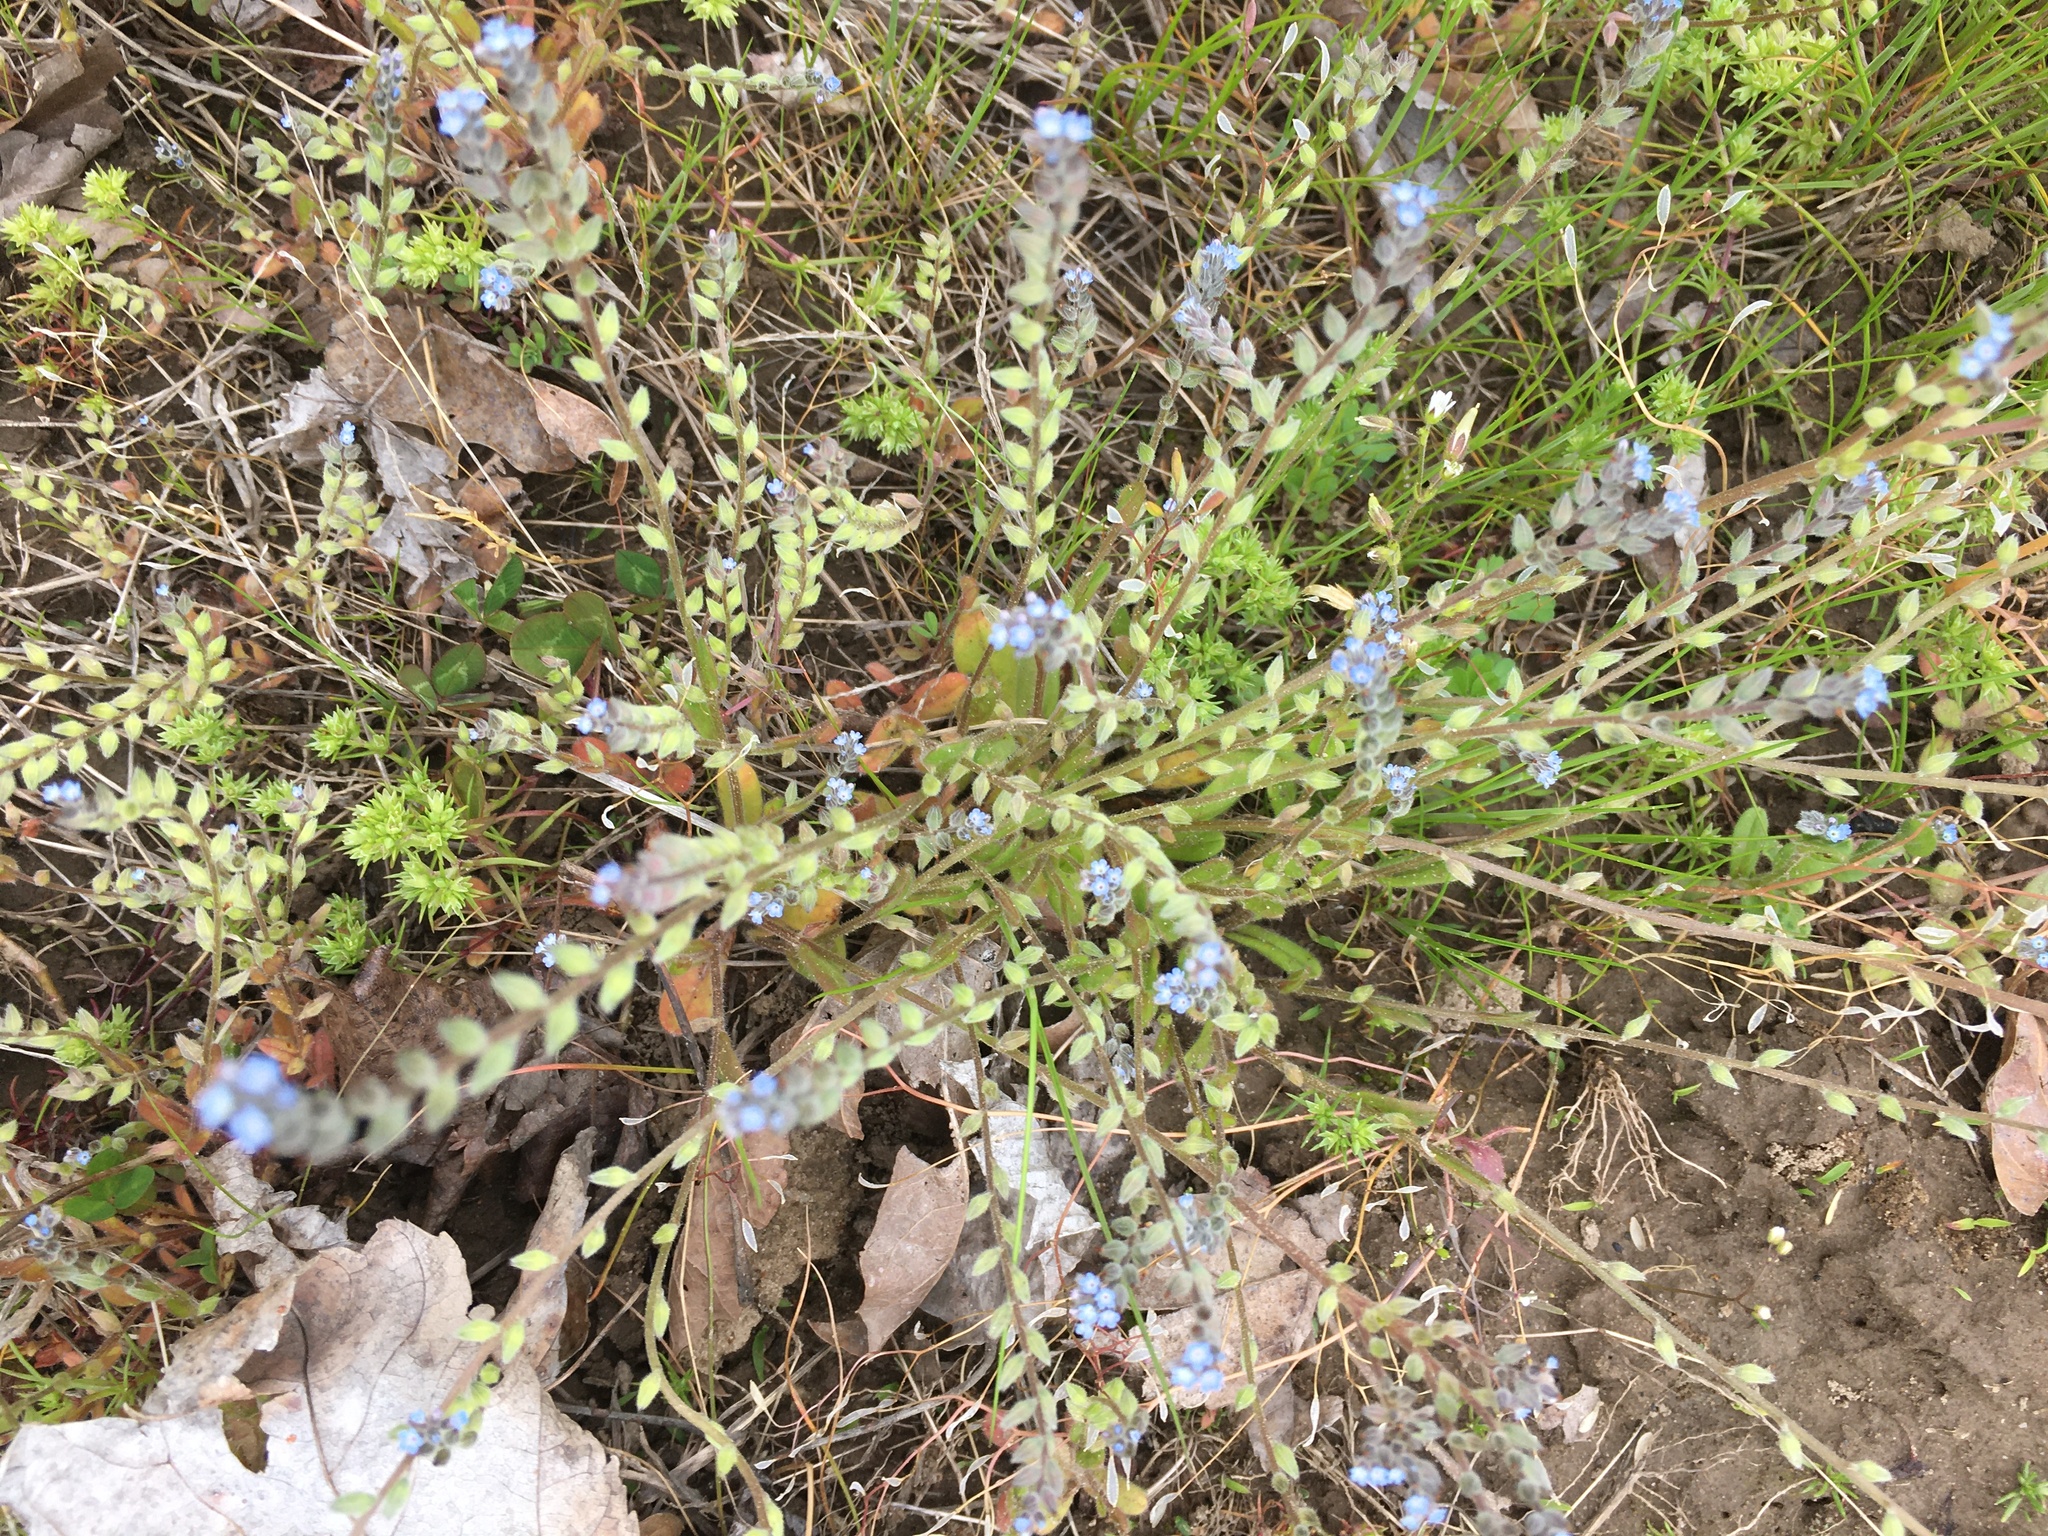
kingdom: Plantae
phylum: Tracheophyta
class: Magnoliopsida
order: Boraginales
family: Boraginaceae
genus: Myosotis
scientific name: Myosotis stricta
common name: Strict forget-me-not
